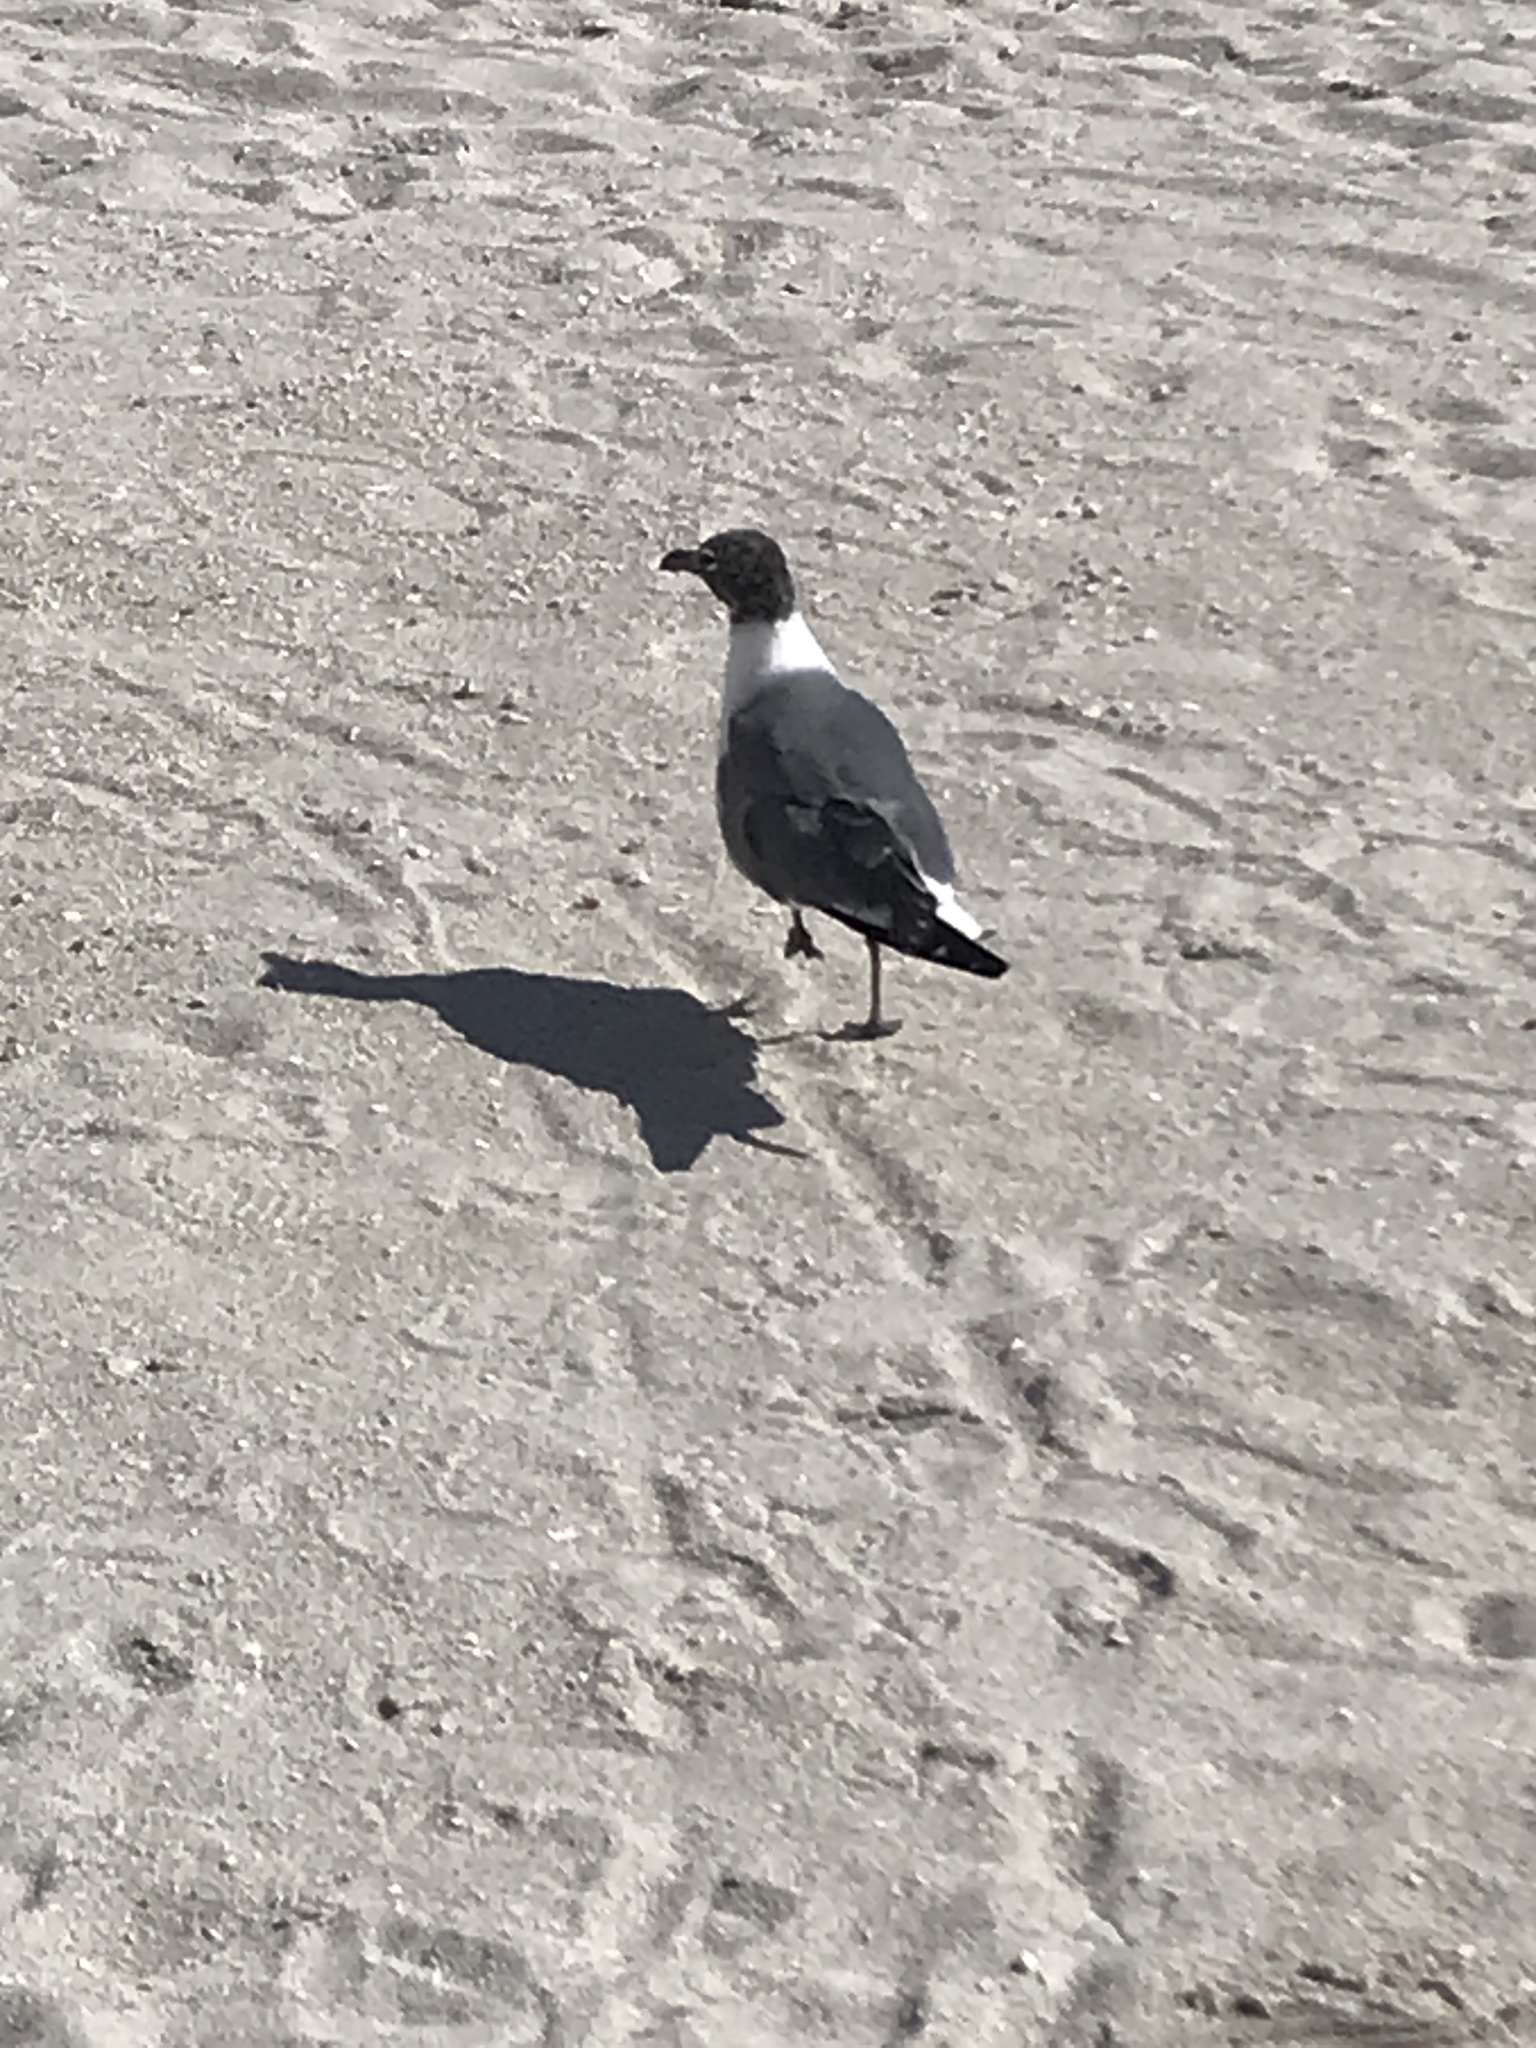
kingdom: Animalia
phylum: Chordata
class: Aves
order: Charadriiformes
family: Laridae
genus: Leucophaeus
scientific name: Leucophaeus atricilla
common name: Laughing gull
